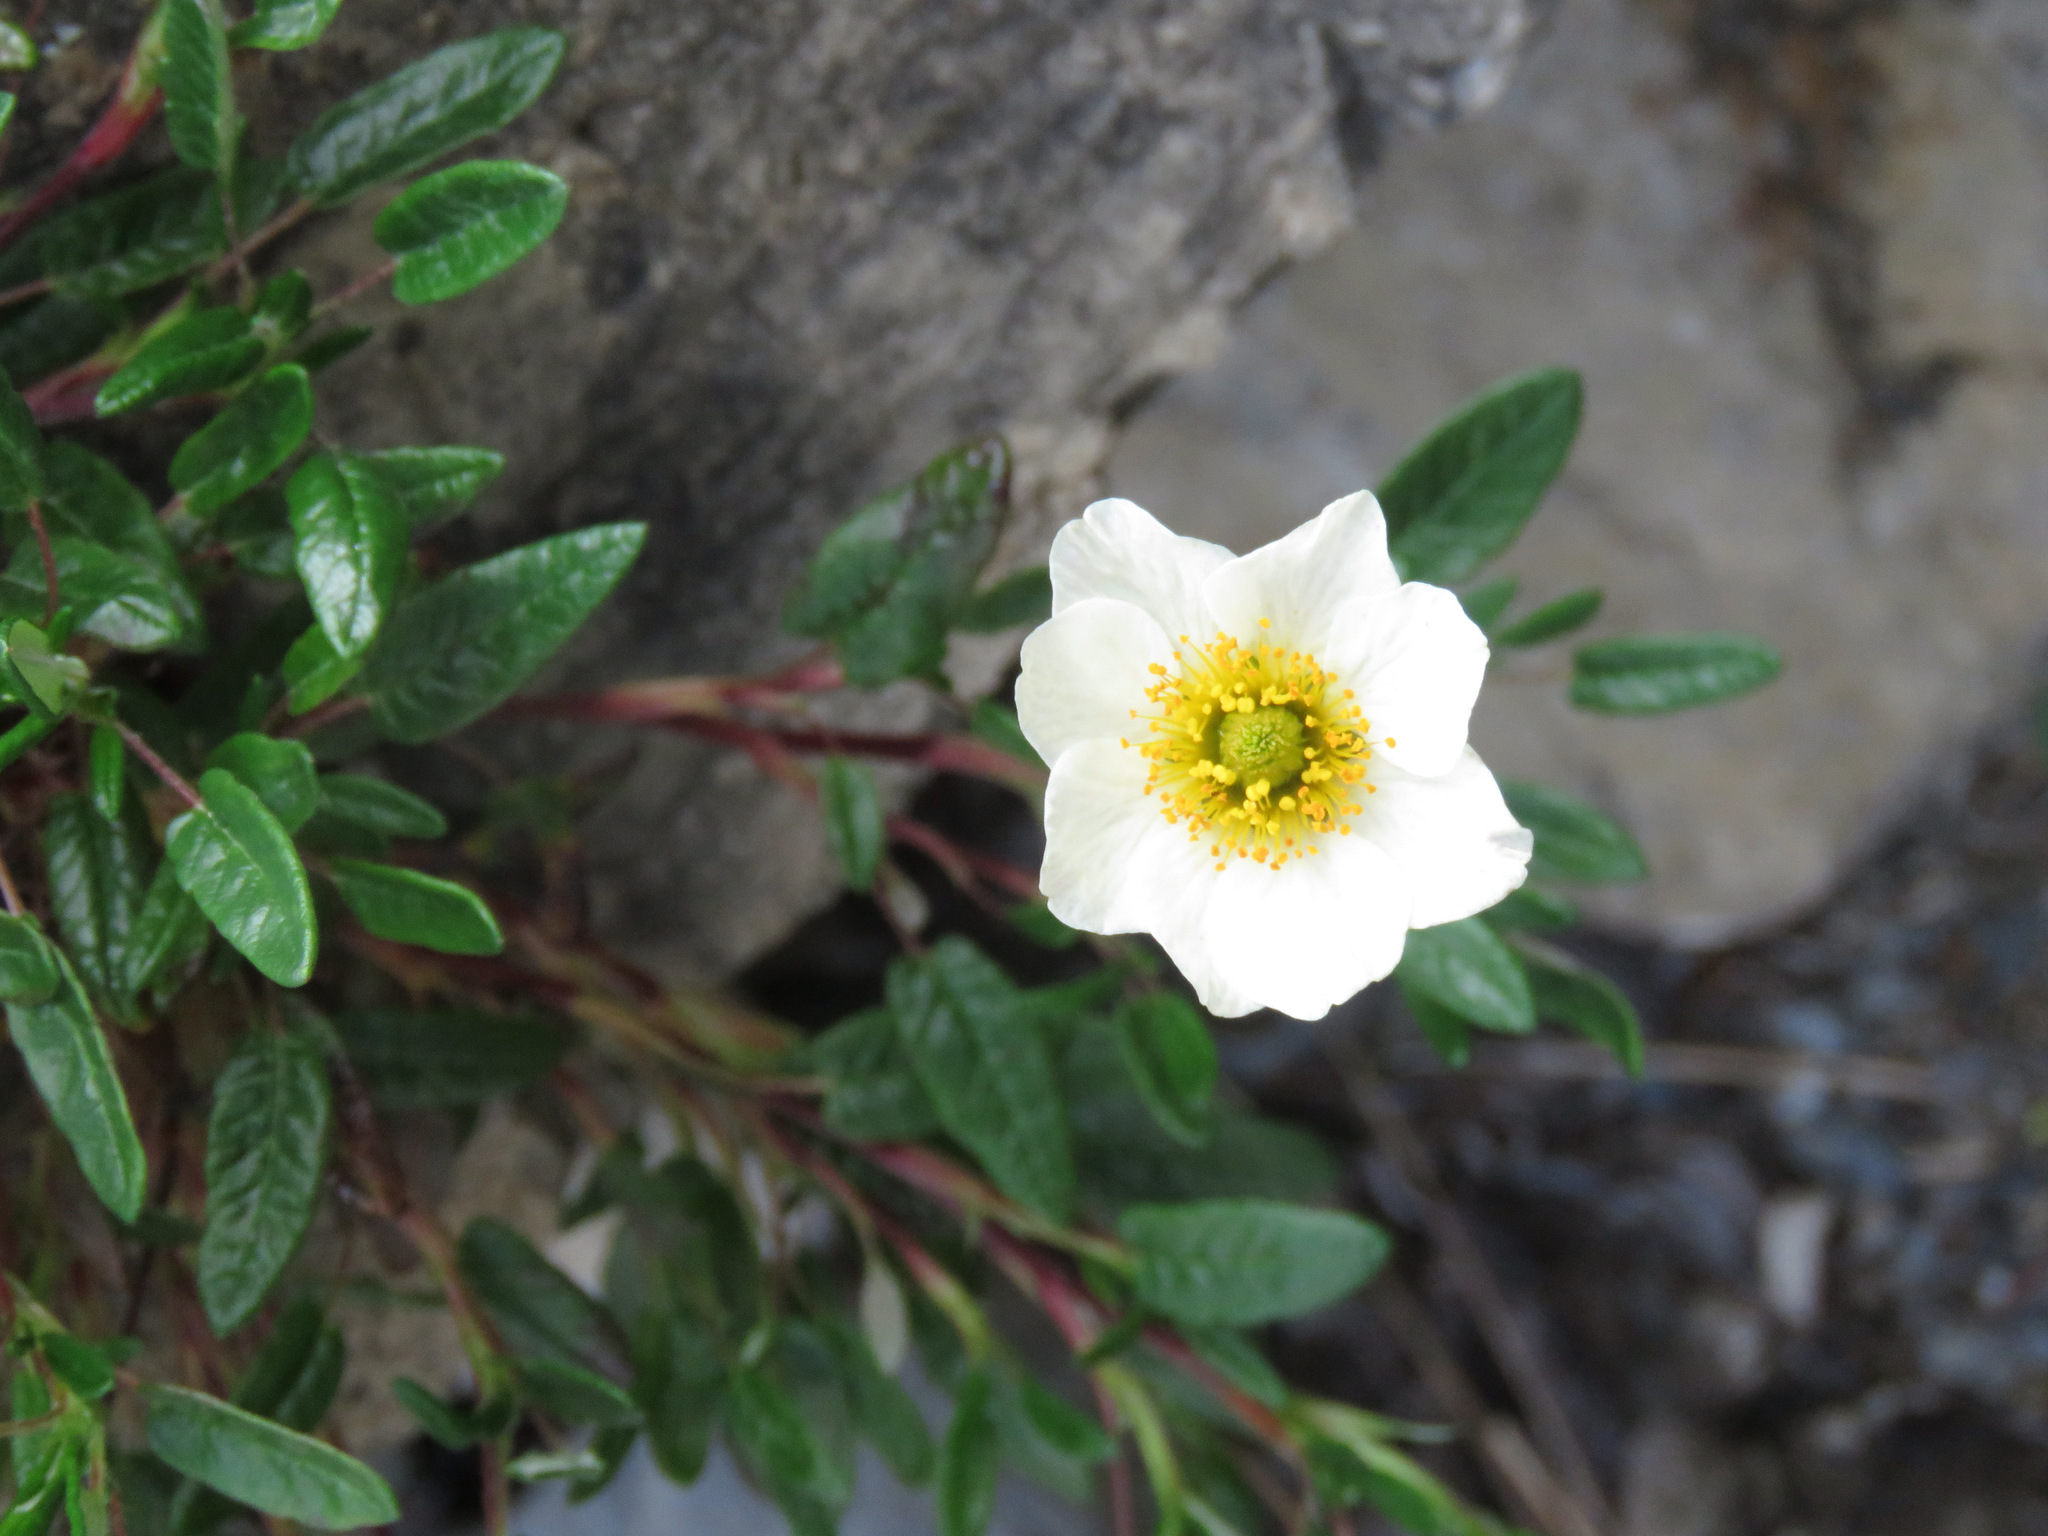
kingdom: Plantae
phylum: Tracheophyta
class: Magnoliopsida
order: Rosales
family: Rosaceae
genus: Dryas
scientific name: Dryas integrifolia
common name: Entire-leaved mountain avens
